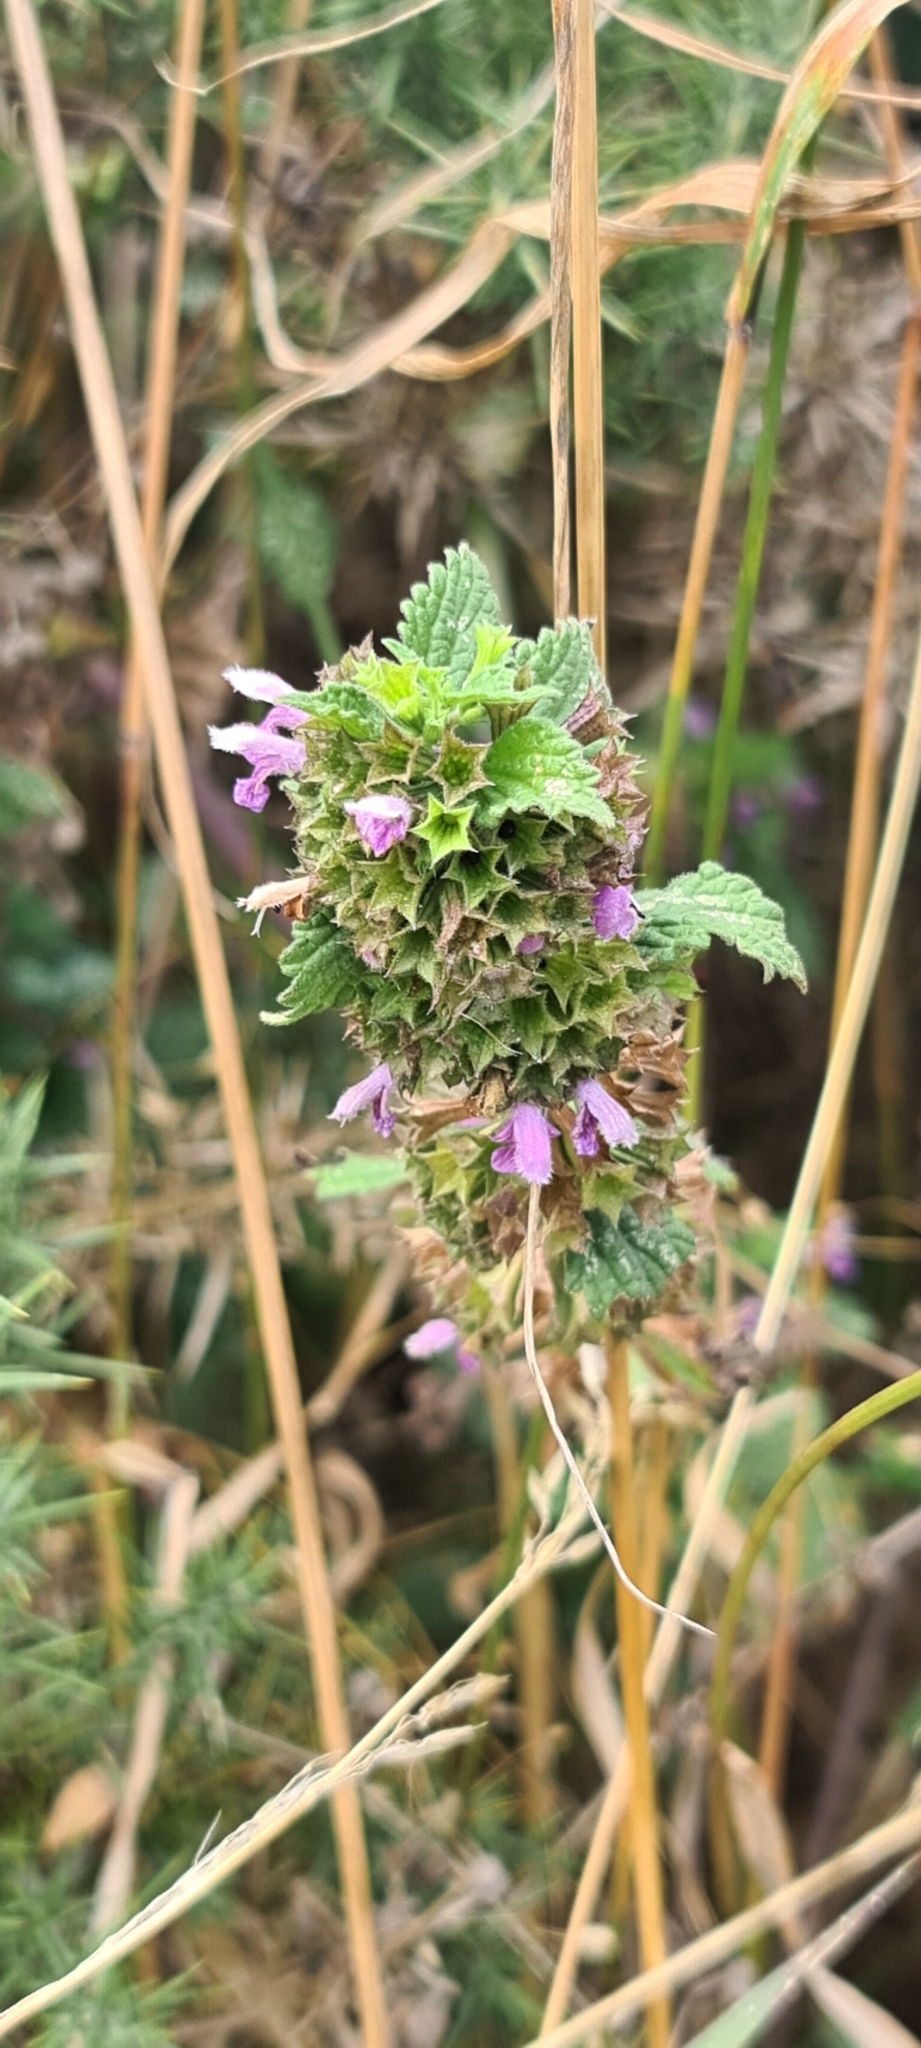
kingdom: Plantae
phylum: Tracheophyta
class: Magnoliopsida
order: Lamiales
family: Lamiaceae
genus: Ballota
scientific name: Ballota nigra
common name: Black horehound
